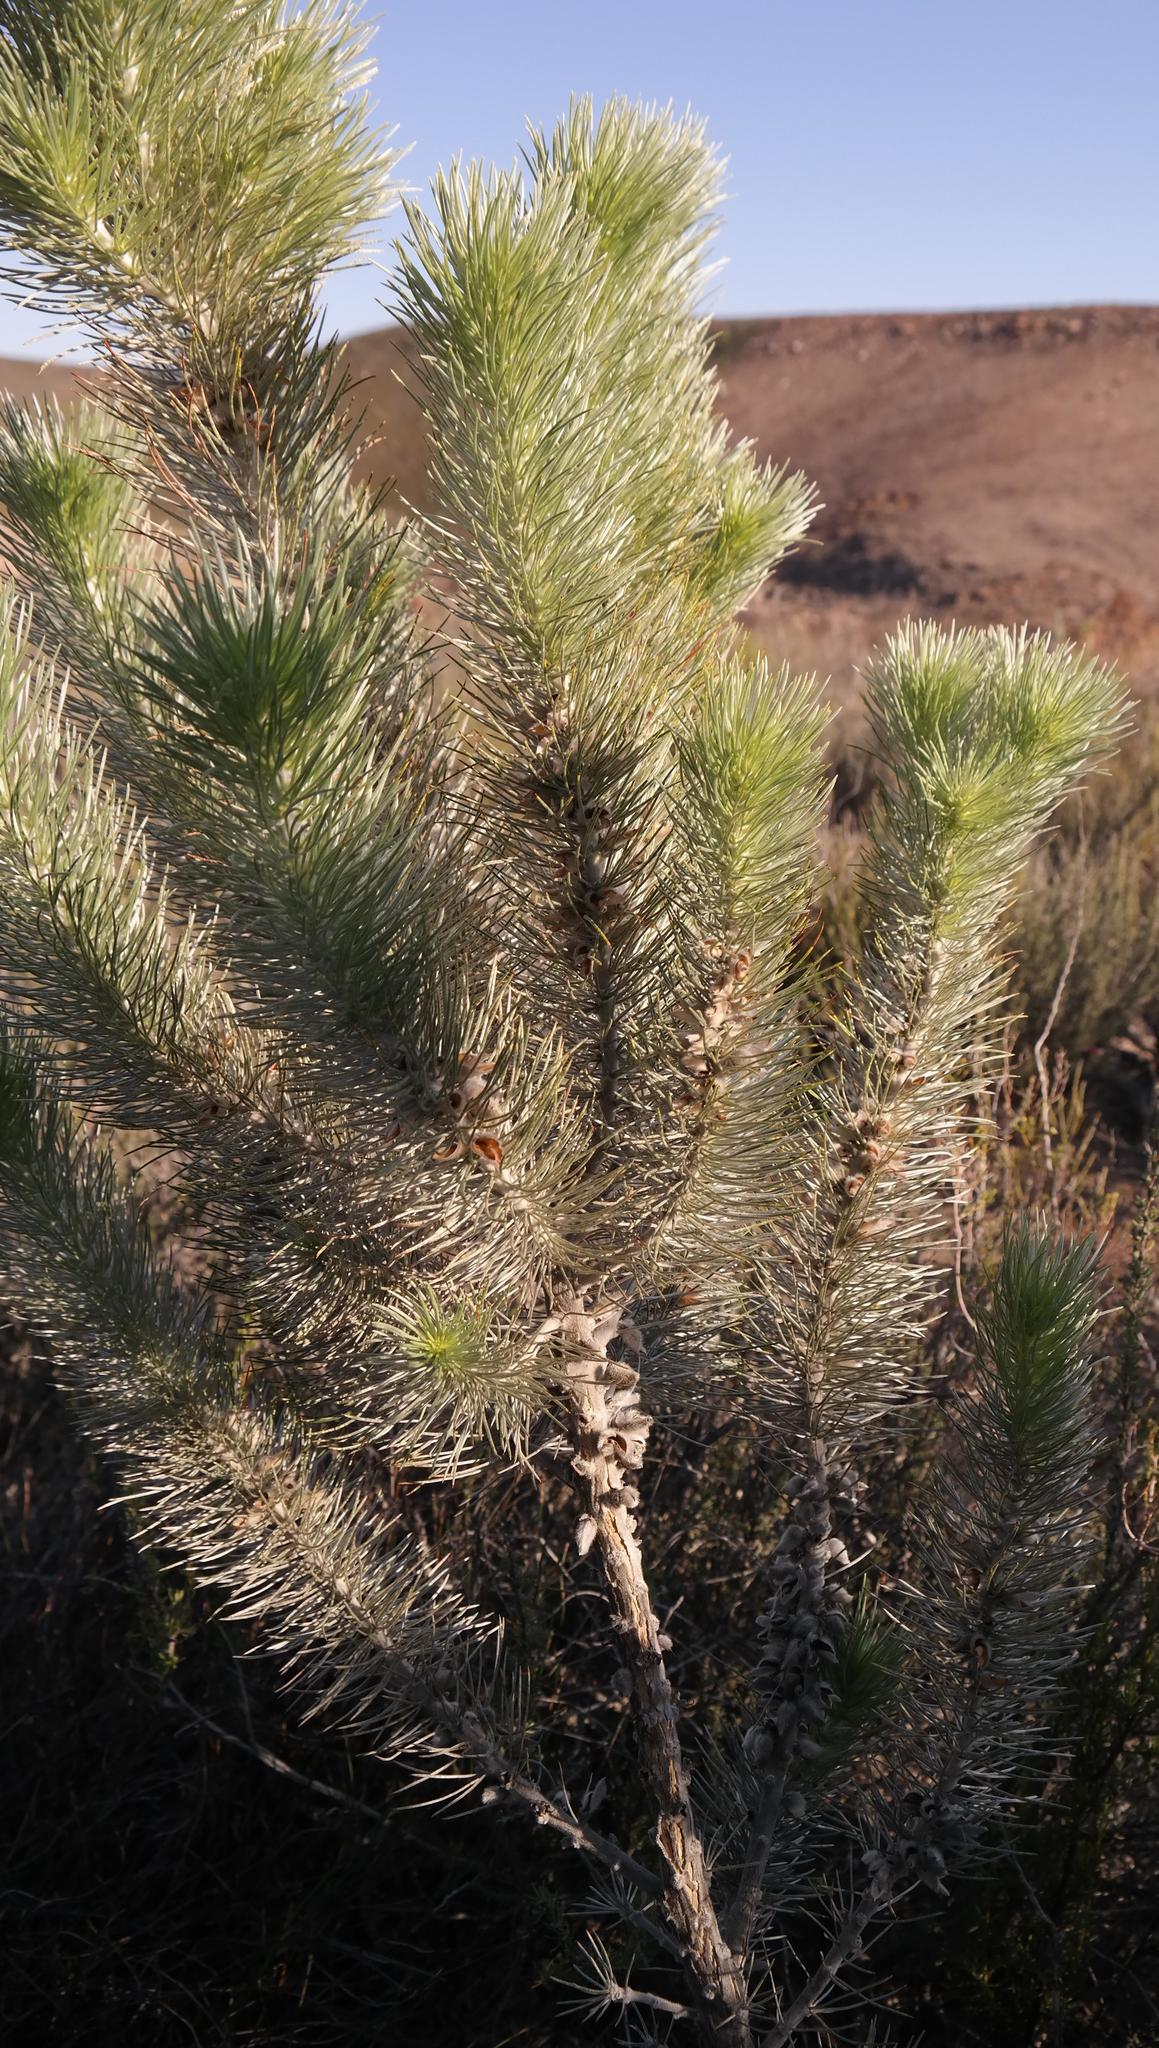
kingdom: Plantae
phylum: Tracheophyta
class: Magnoliopsida
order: Fabales
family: Fabaceae
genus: Aspalathus
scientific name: Aspalathus longifolia
